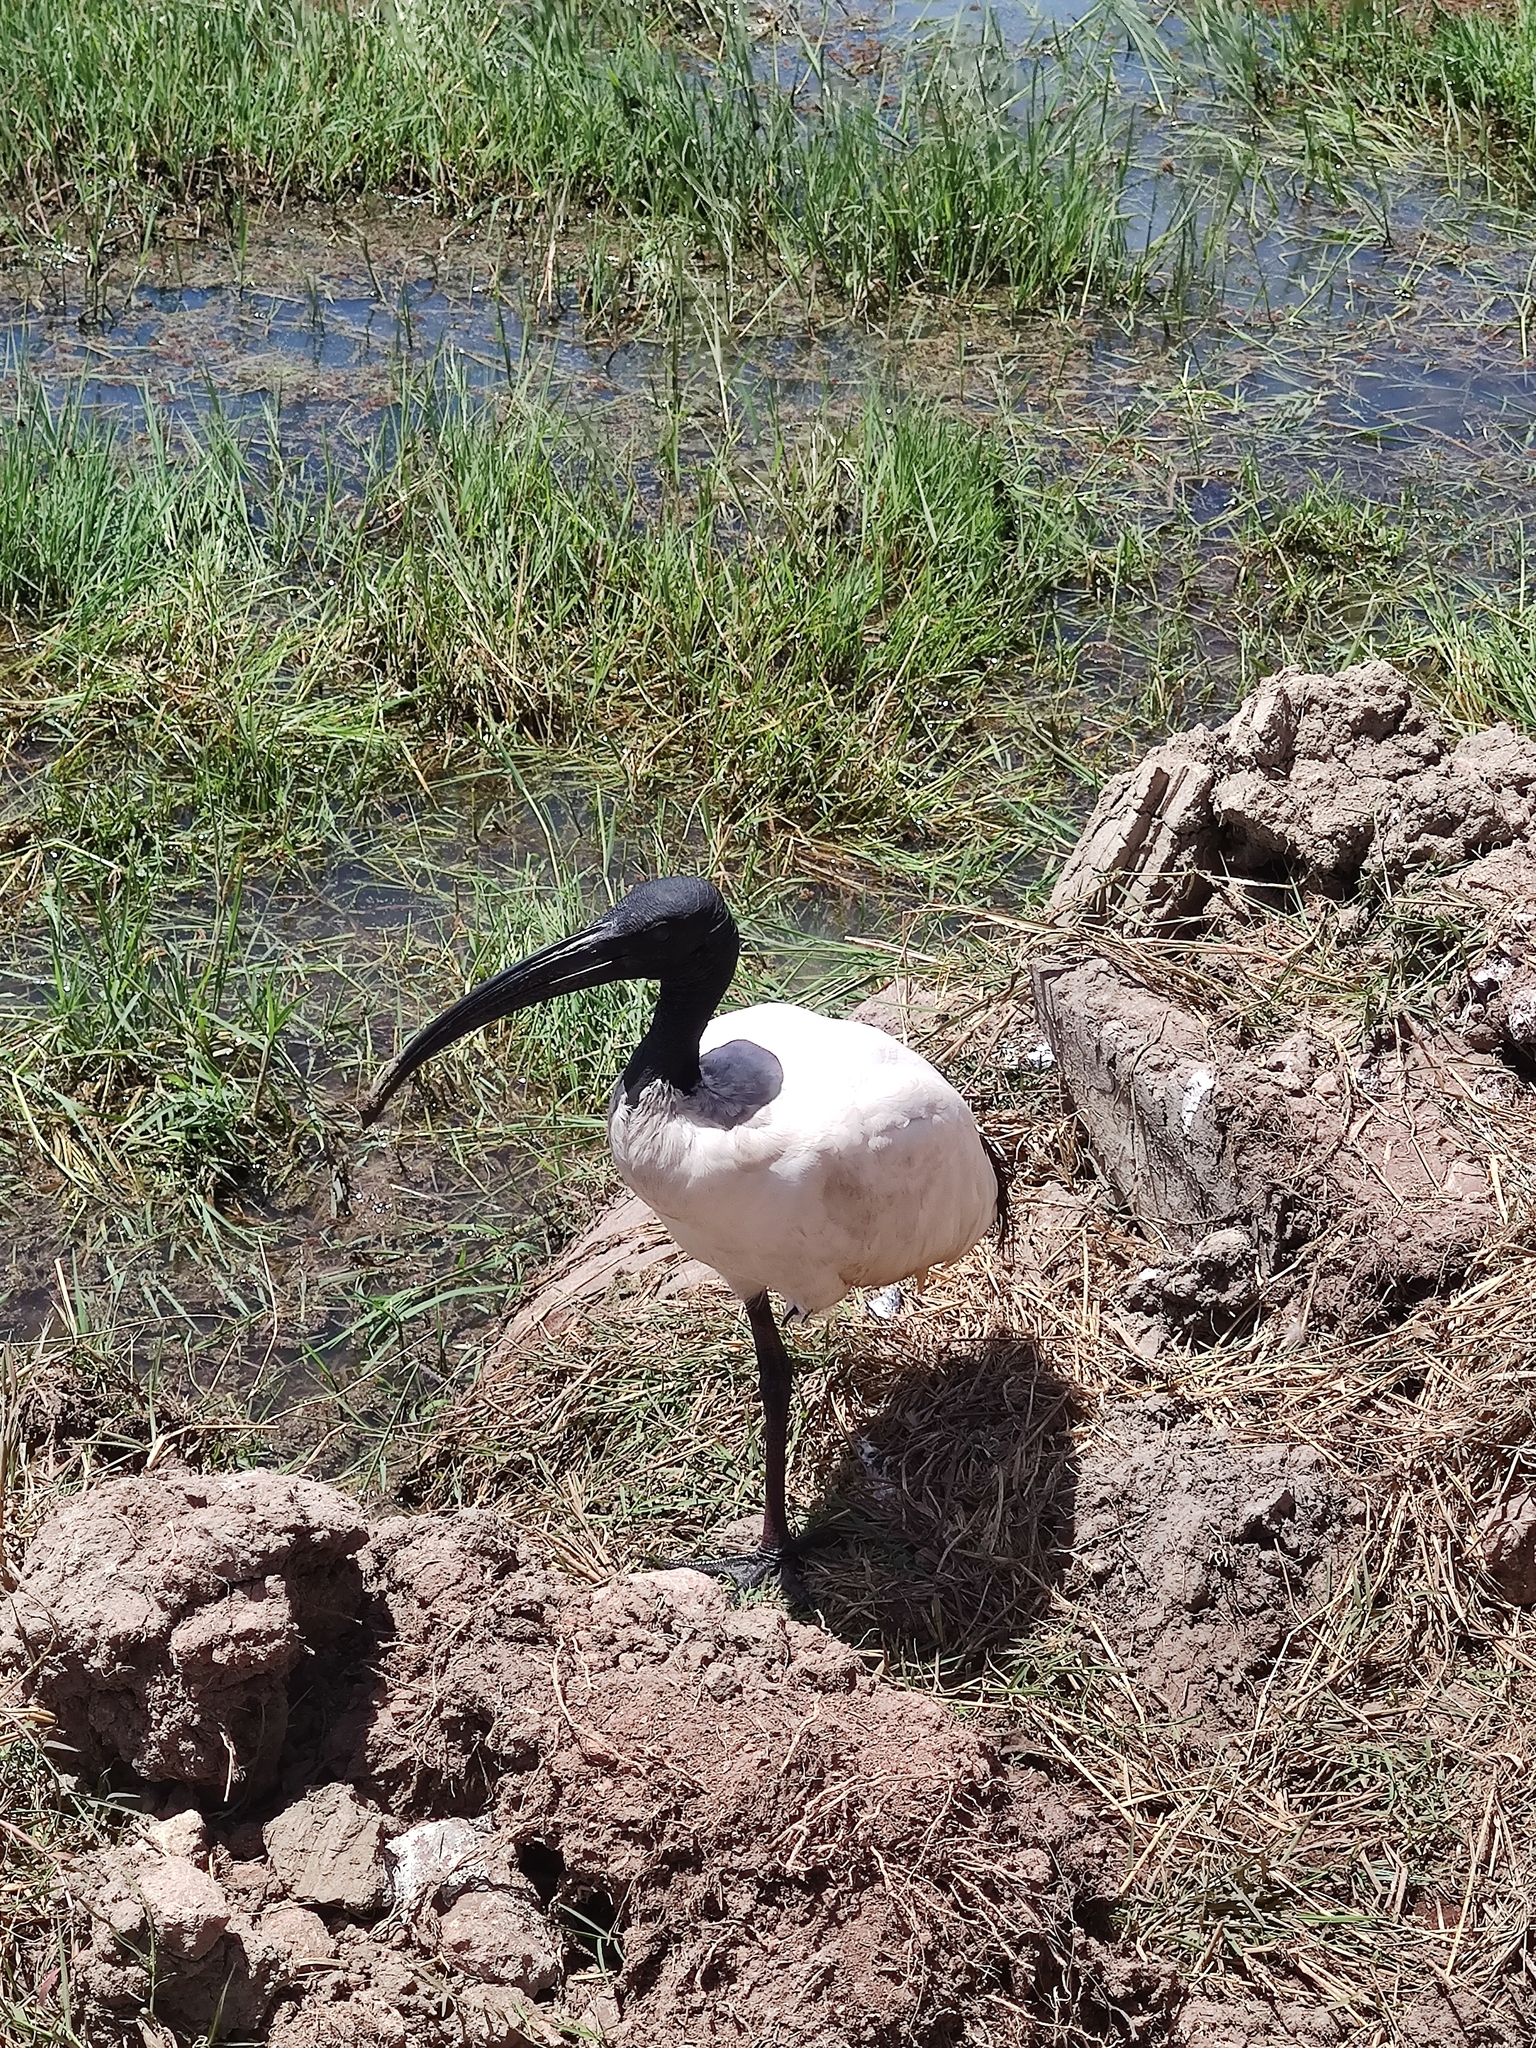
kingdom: Animalia
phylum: Chordata
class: Aves
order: Pelecaniformes
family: Threskiornithidae
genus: Threskiornis
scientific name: Threskiornis aethiopicus
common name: Sacred ibis
